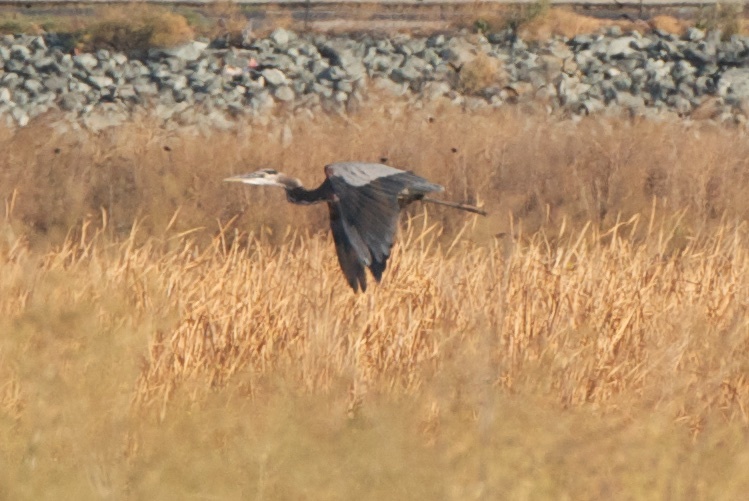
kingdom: Animalia
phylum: Chordata
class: Aves
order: Pelecaniformes
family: Ardeidae
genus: Ardea
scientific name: Ardea herodias
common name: Great blue heron
